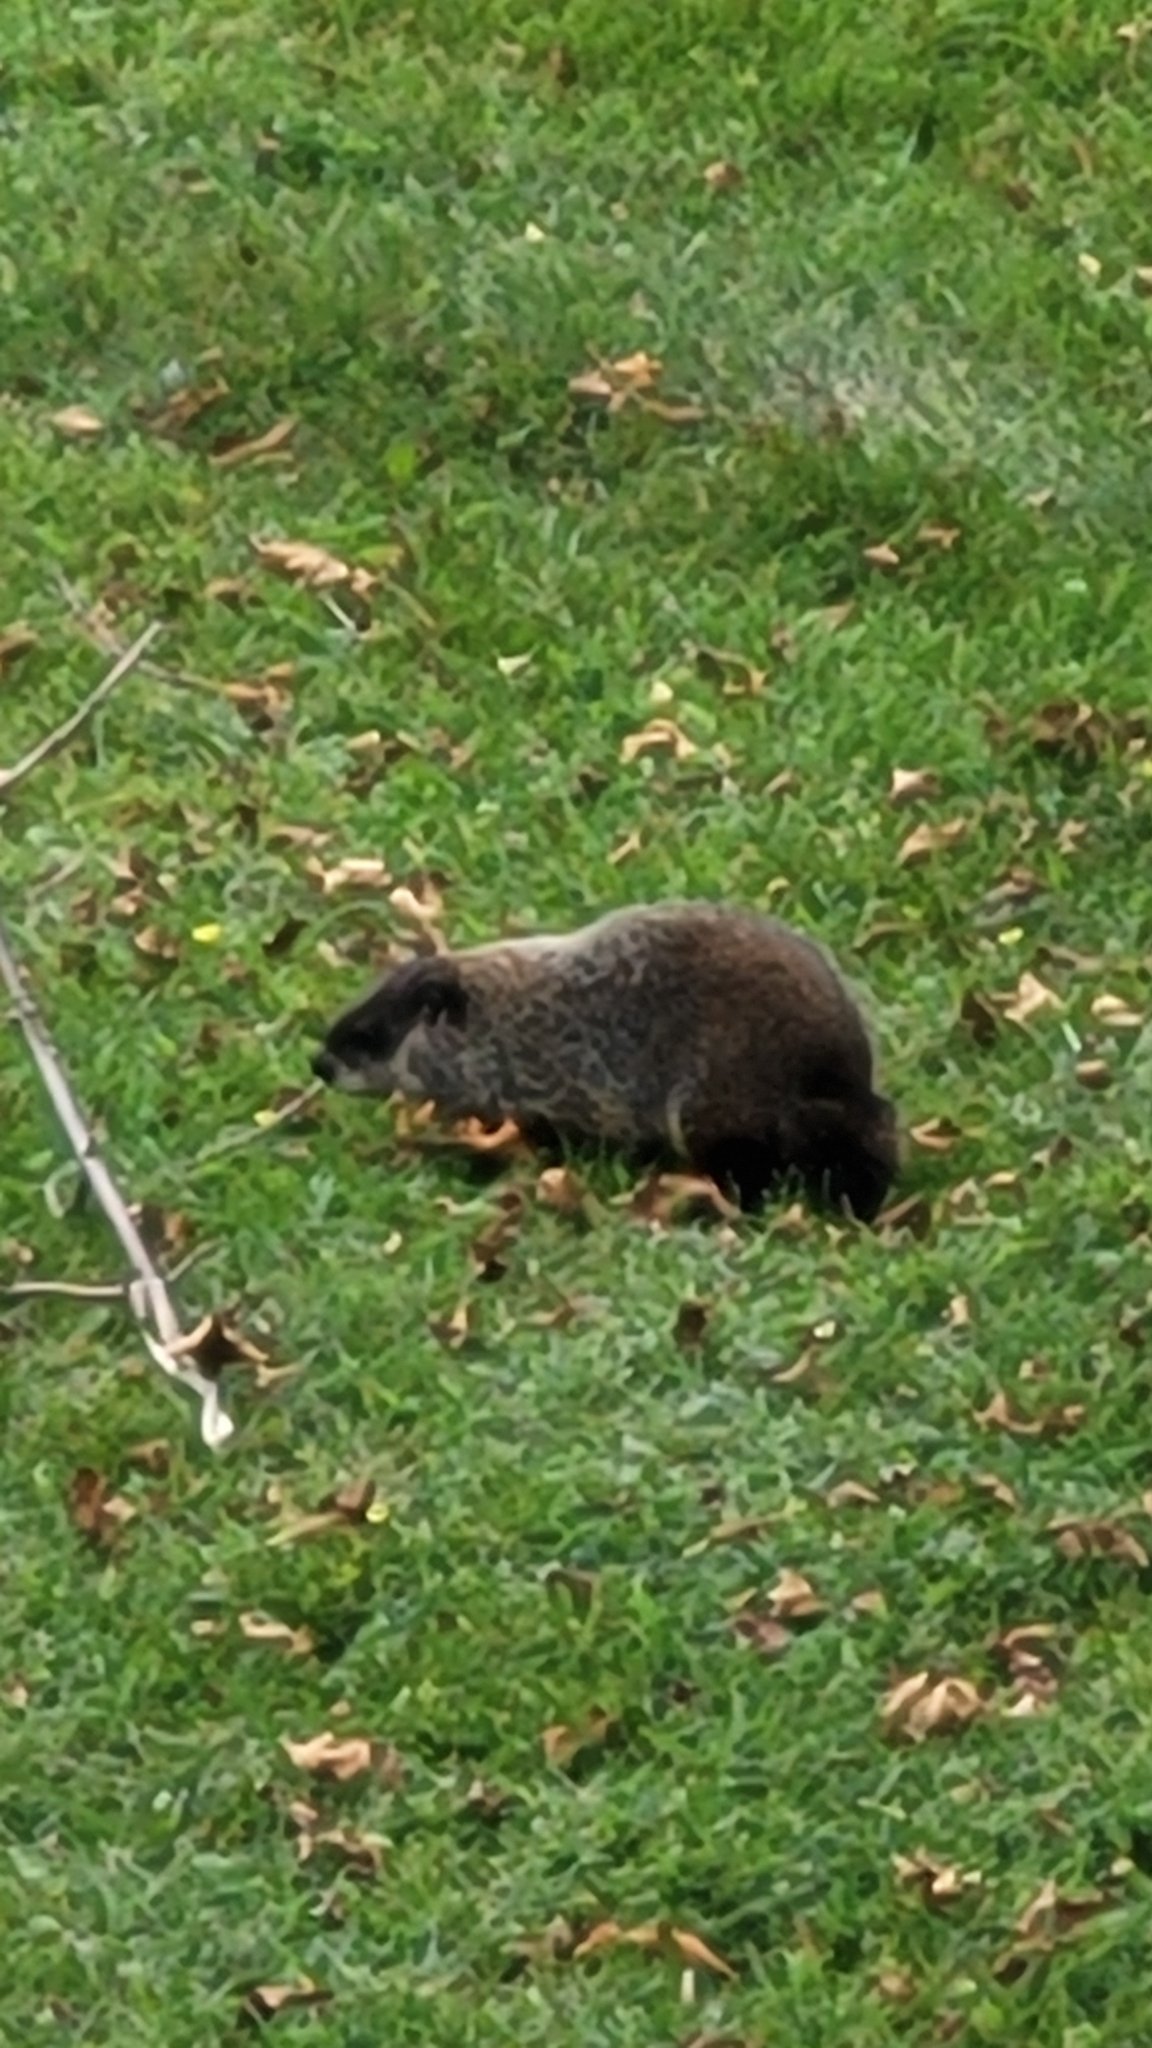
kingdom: Animalia
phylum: Chordata
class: Mammalia
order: Rodentia
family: Sciuridae
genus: Marmota
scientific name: Marmota monax
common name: Groundhog
